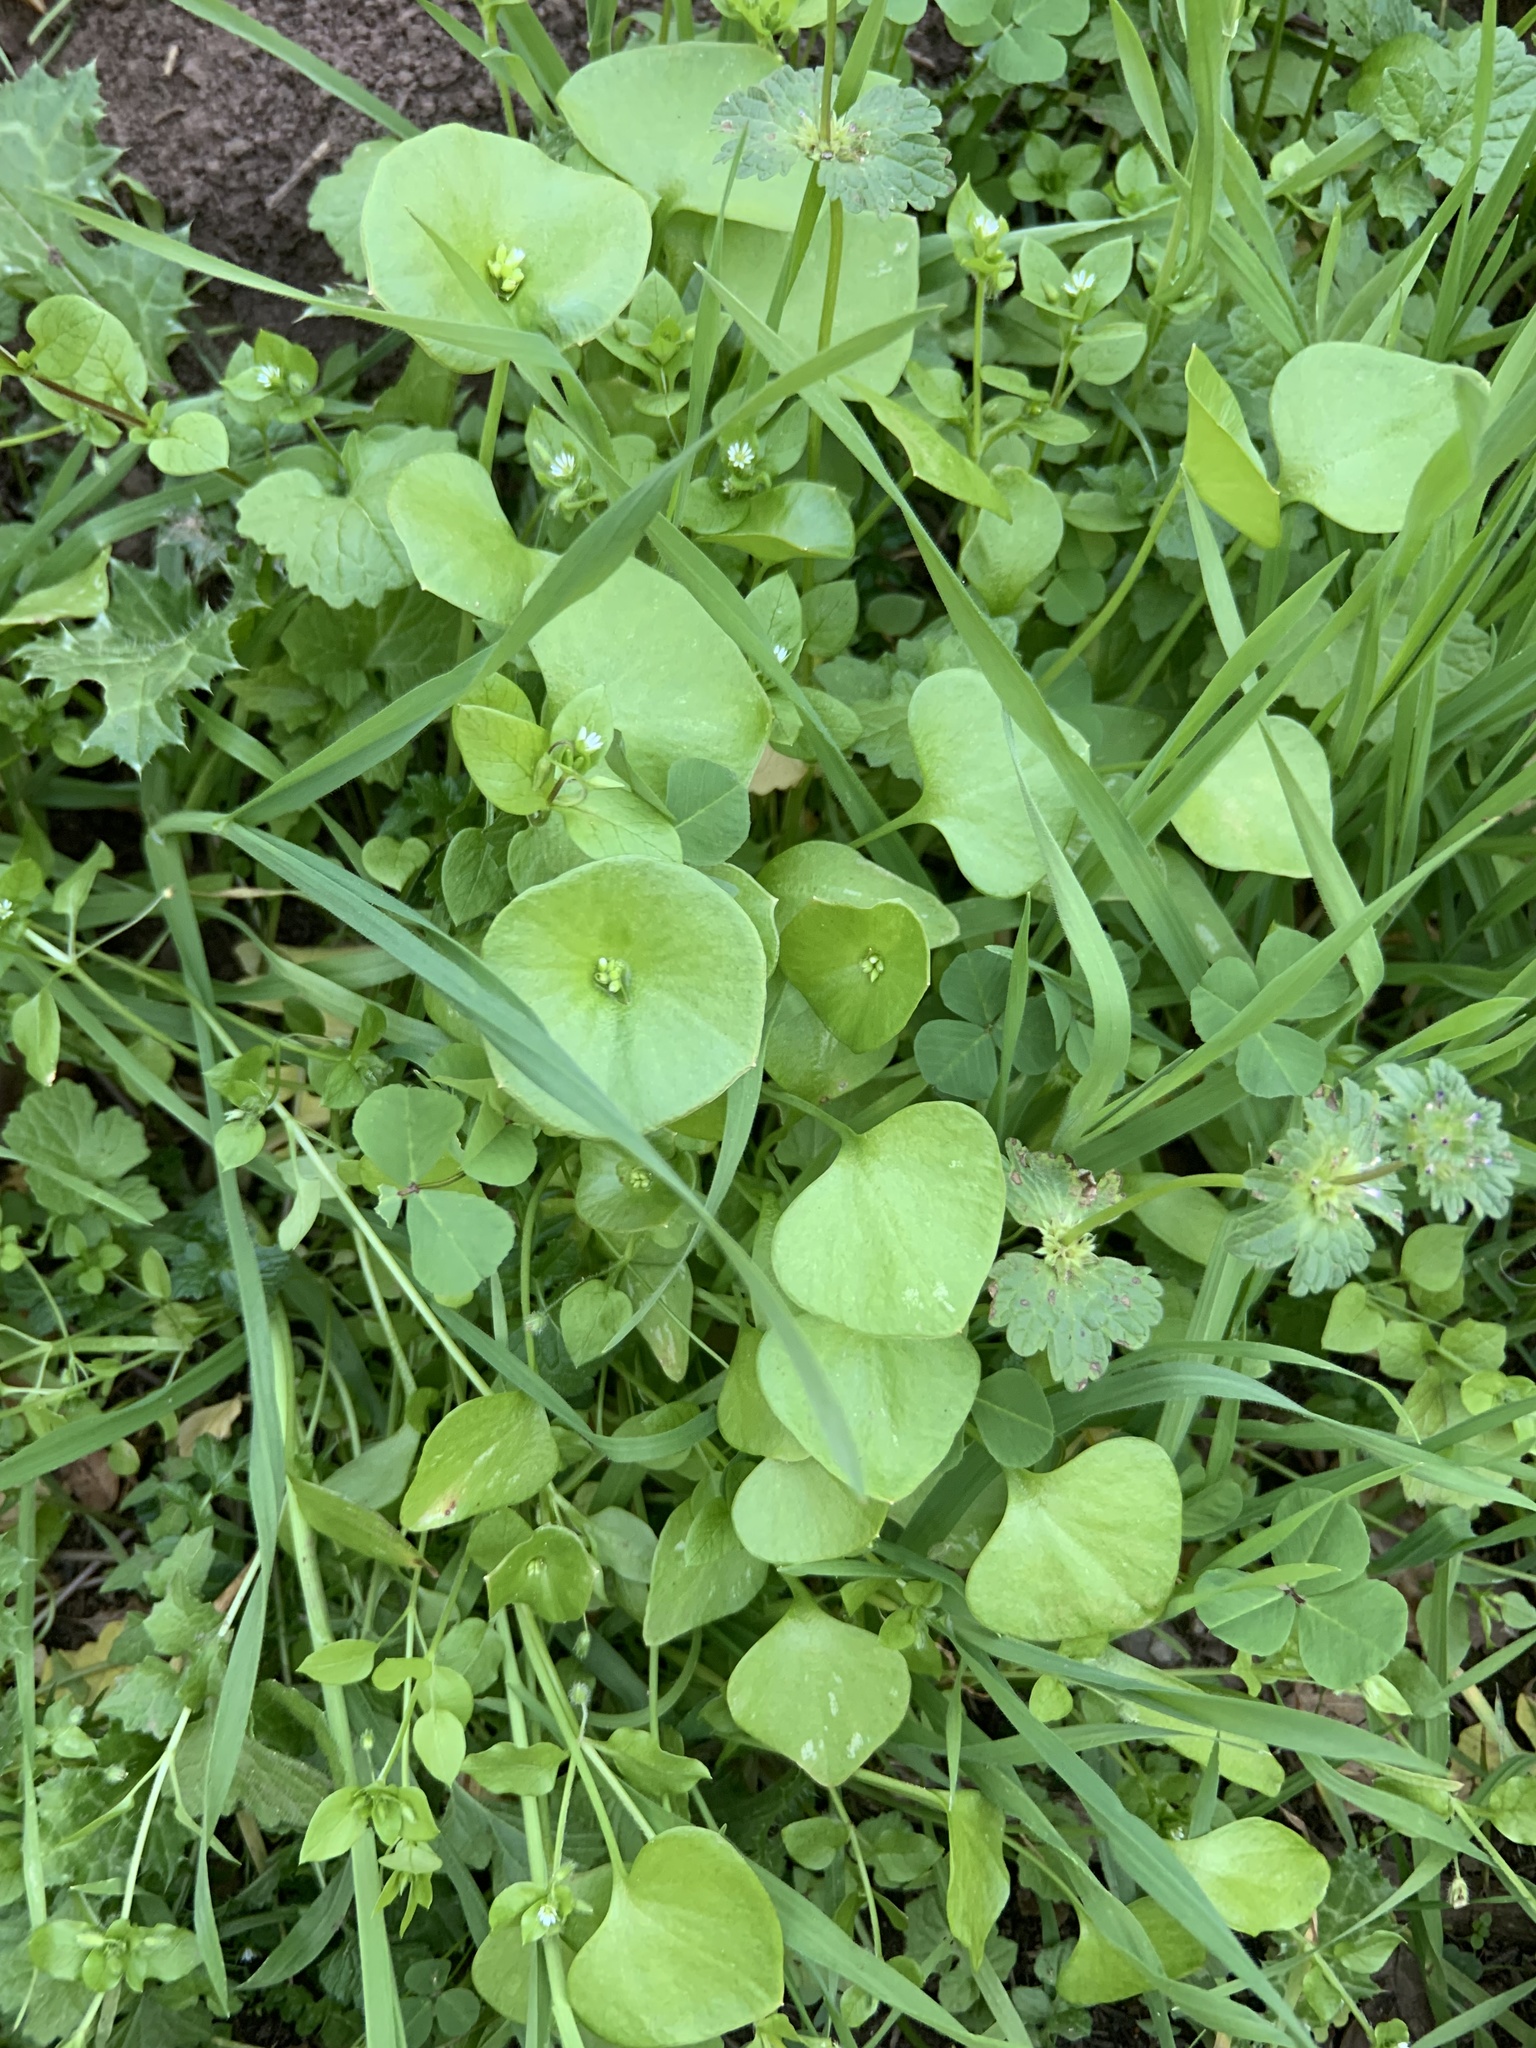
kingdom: Plantae
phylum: Tracheophyta
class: Magnoliopsida
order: Caryophyllales
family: Montiaceae
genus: Claytonia
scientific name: Claytonia perfoliata
